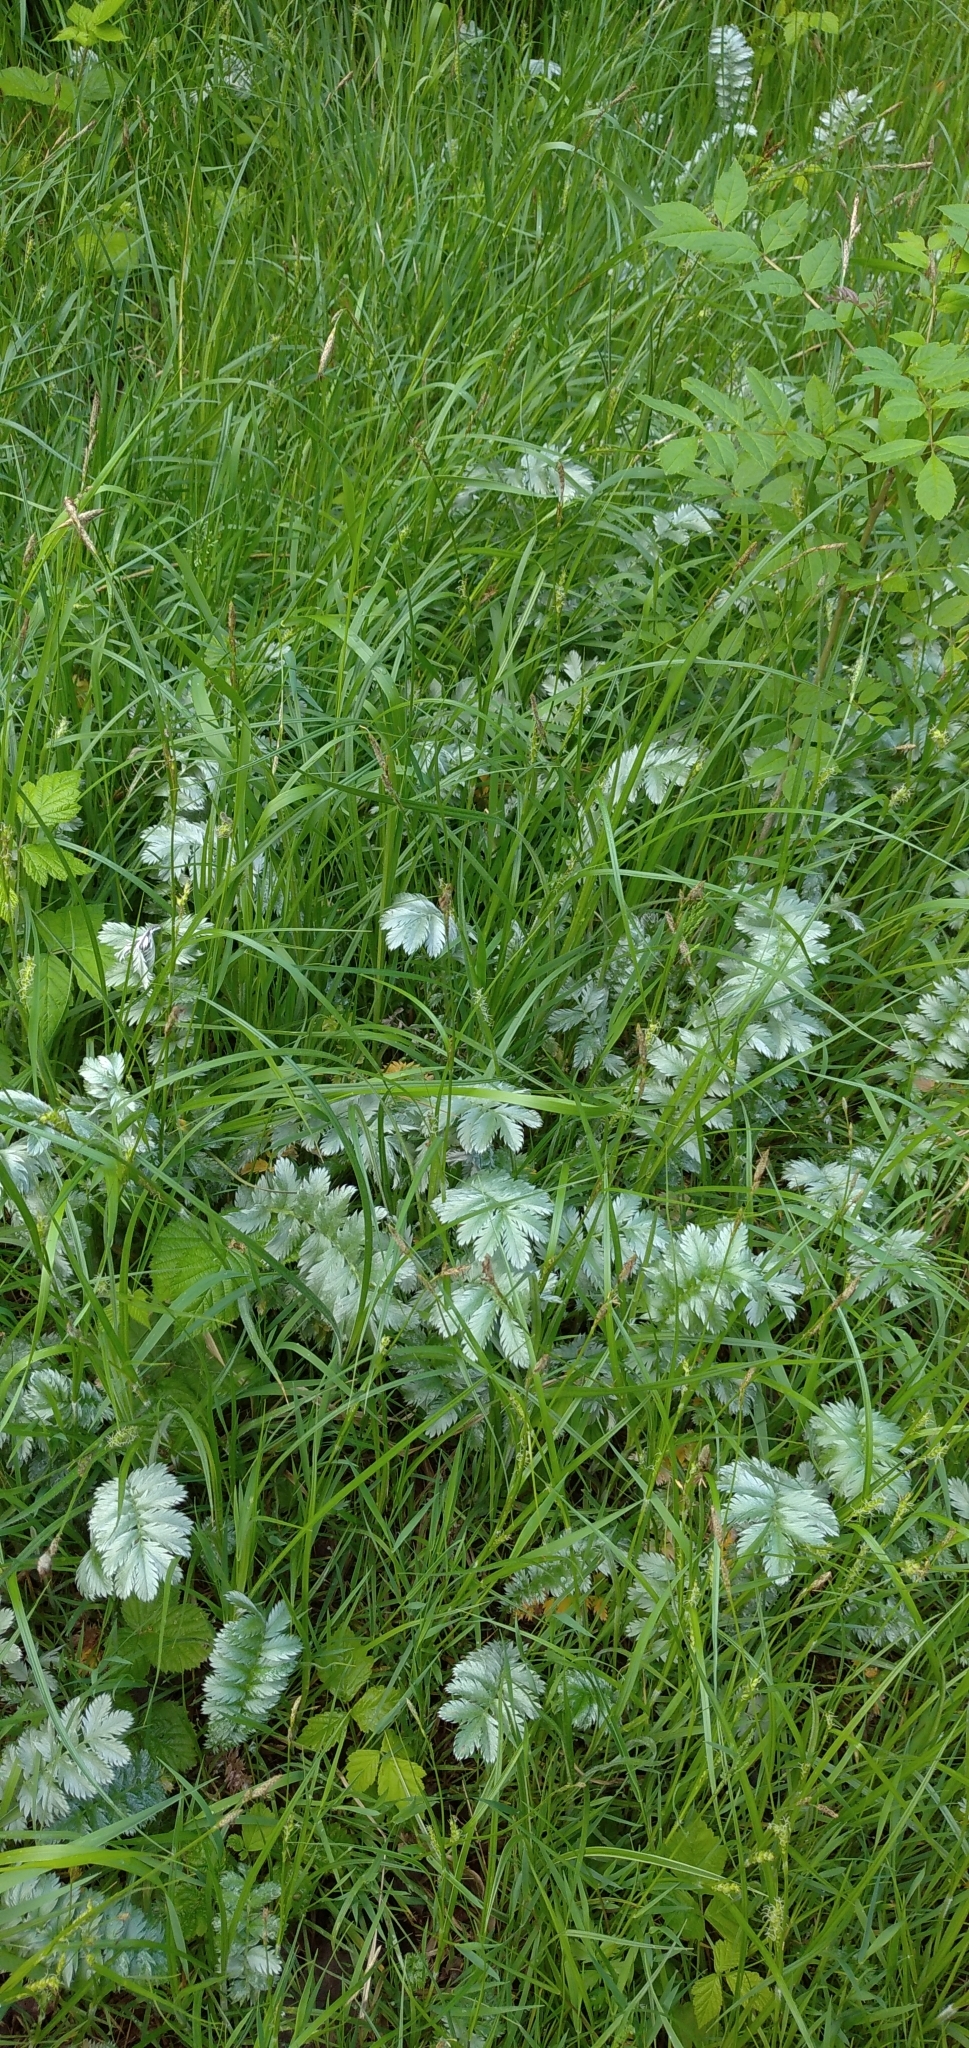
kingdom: Plantae
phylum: Tracheophyta
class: Magnoliopsida
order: Rosales
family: Rosaceae
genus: Argentina
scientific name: Argentina anserina
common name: Common silverweed
